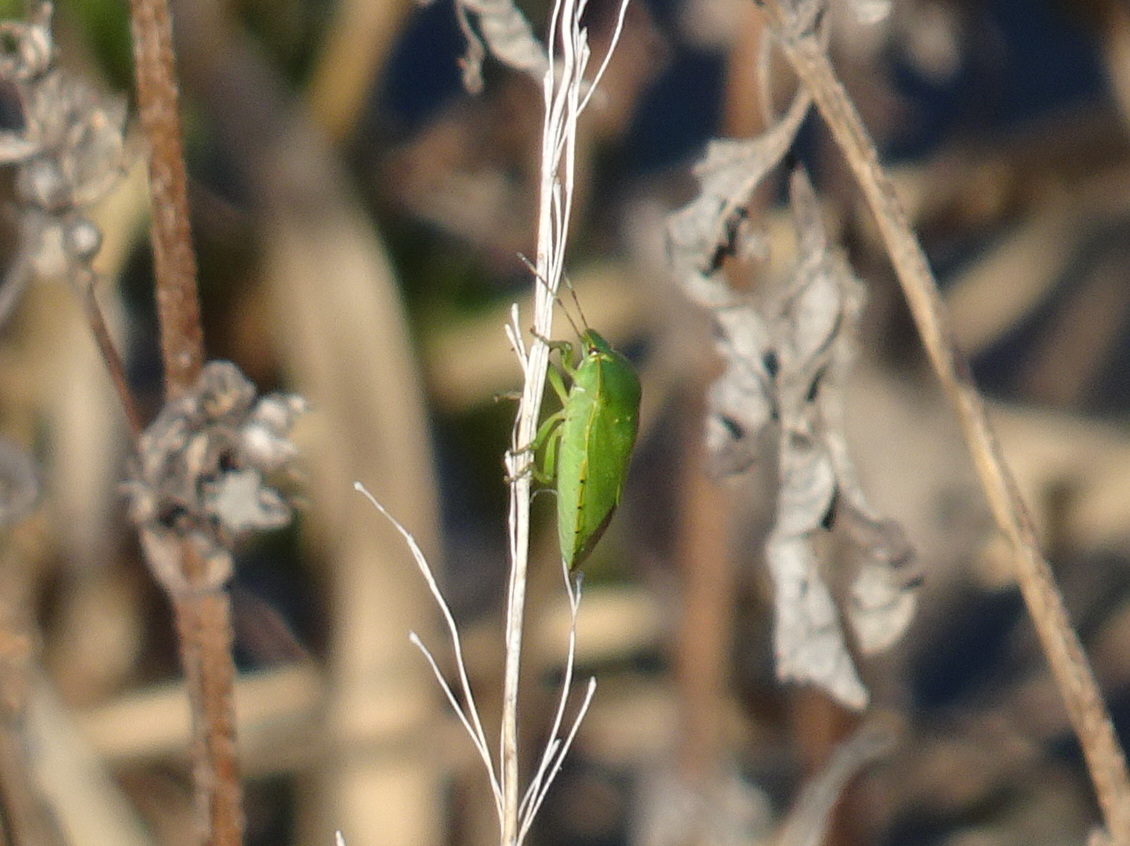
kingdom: Animalia
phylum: Arthropoda
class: Insecta
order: Hemiptera
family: Pentatomidae
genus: Chinavia
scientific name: Chinavia hilaris
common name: Green stink bug
